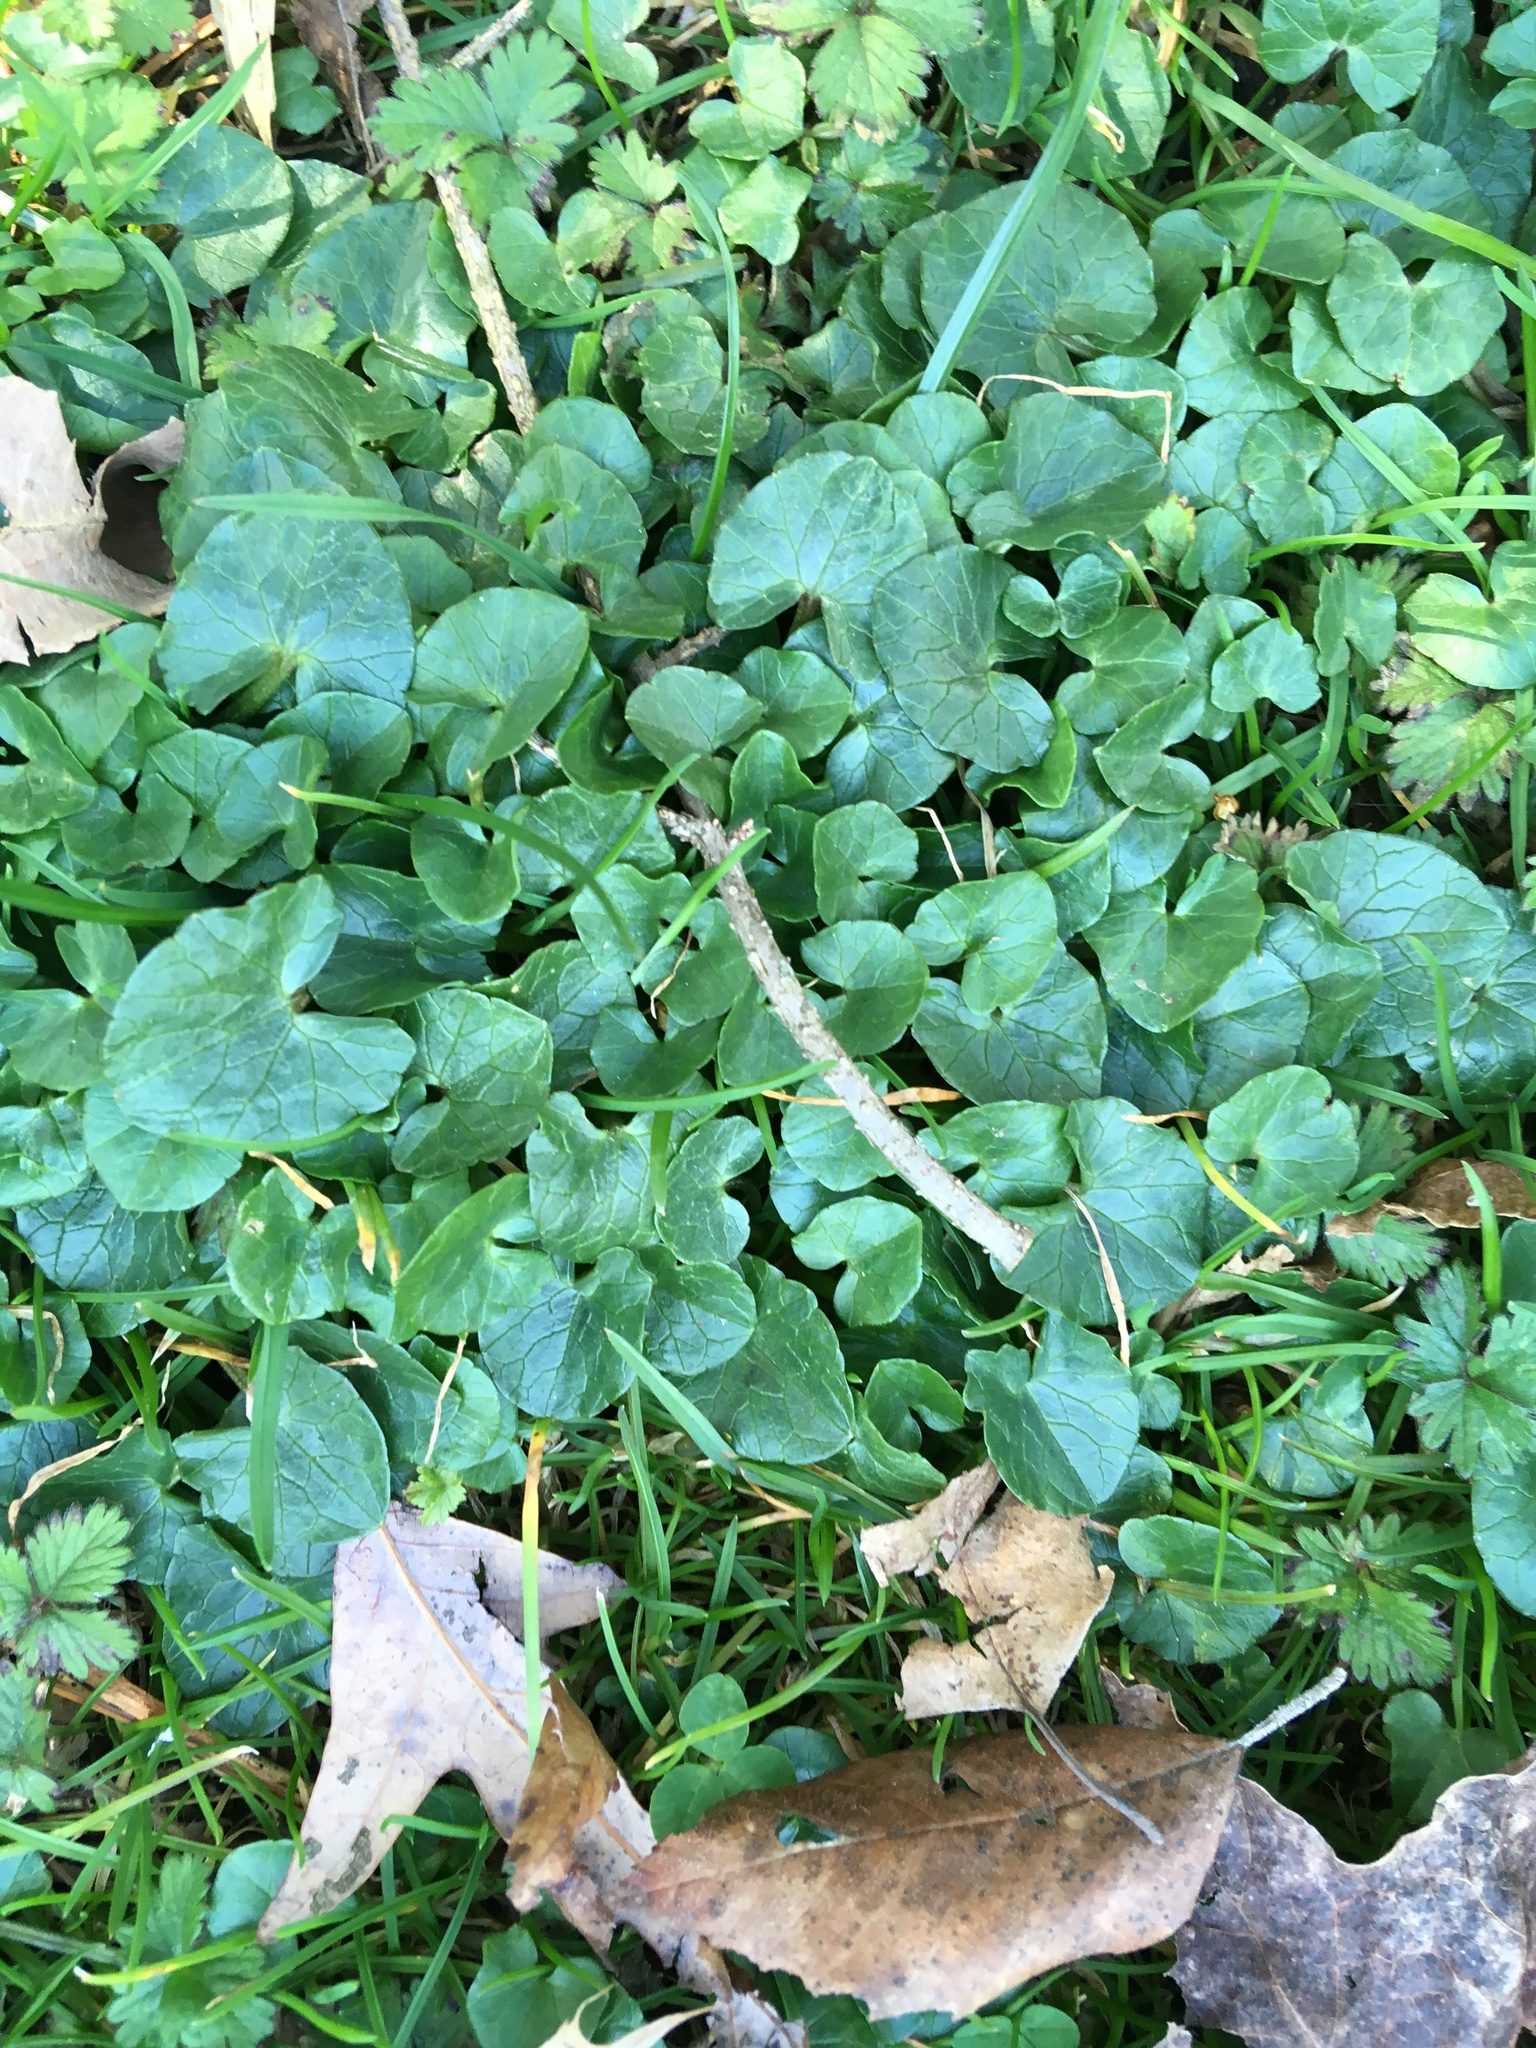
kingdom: Plantae
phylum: Tracheophyta
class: Magnoliopsida
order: Ranunculales
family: Ranunculaceae
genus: Ficaria
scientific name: Ficaria verna
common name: Lesser celandine
